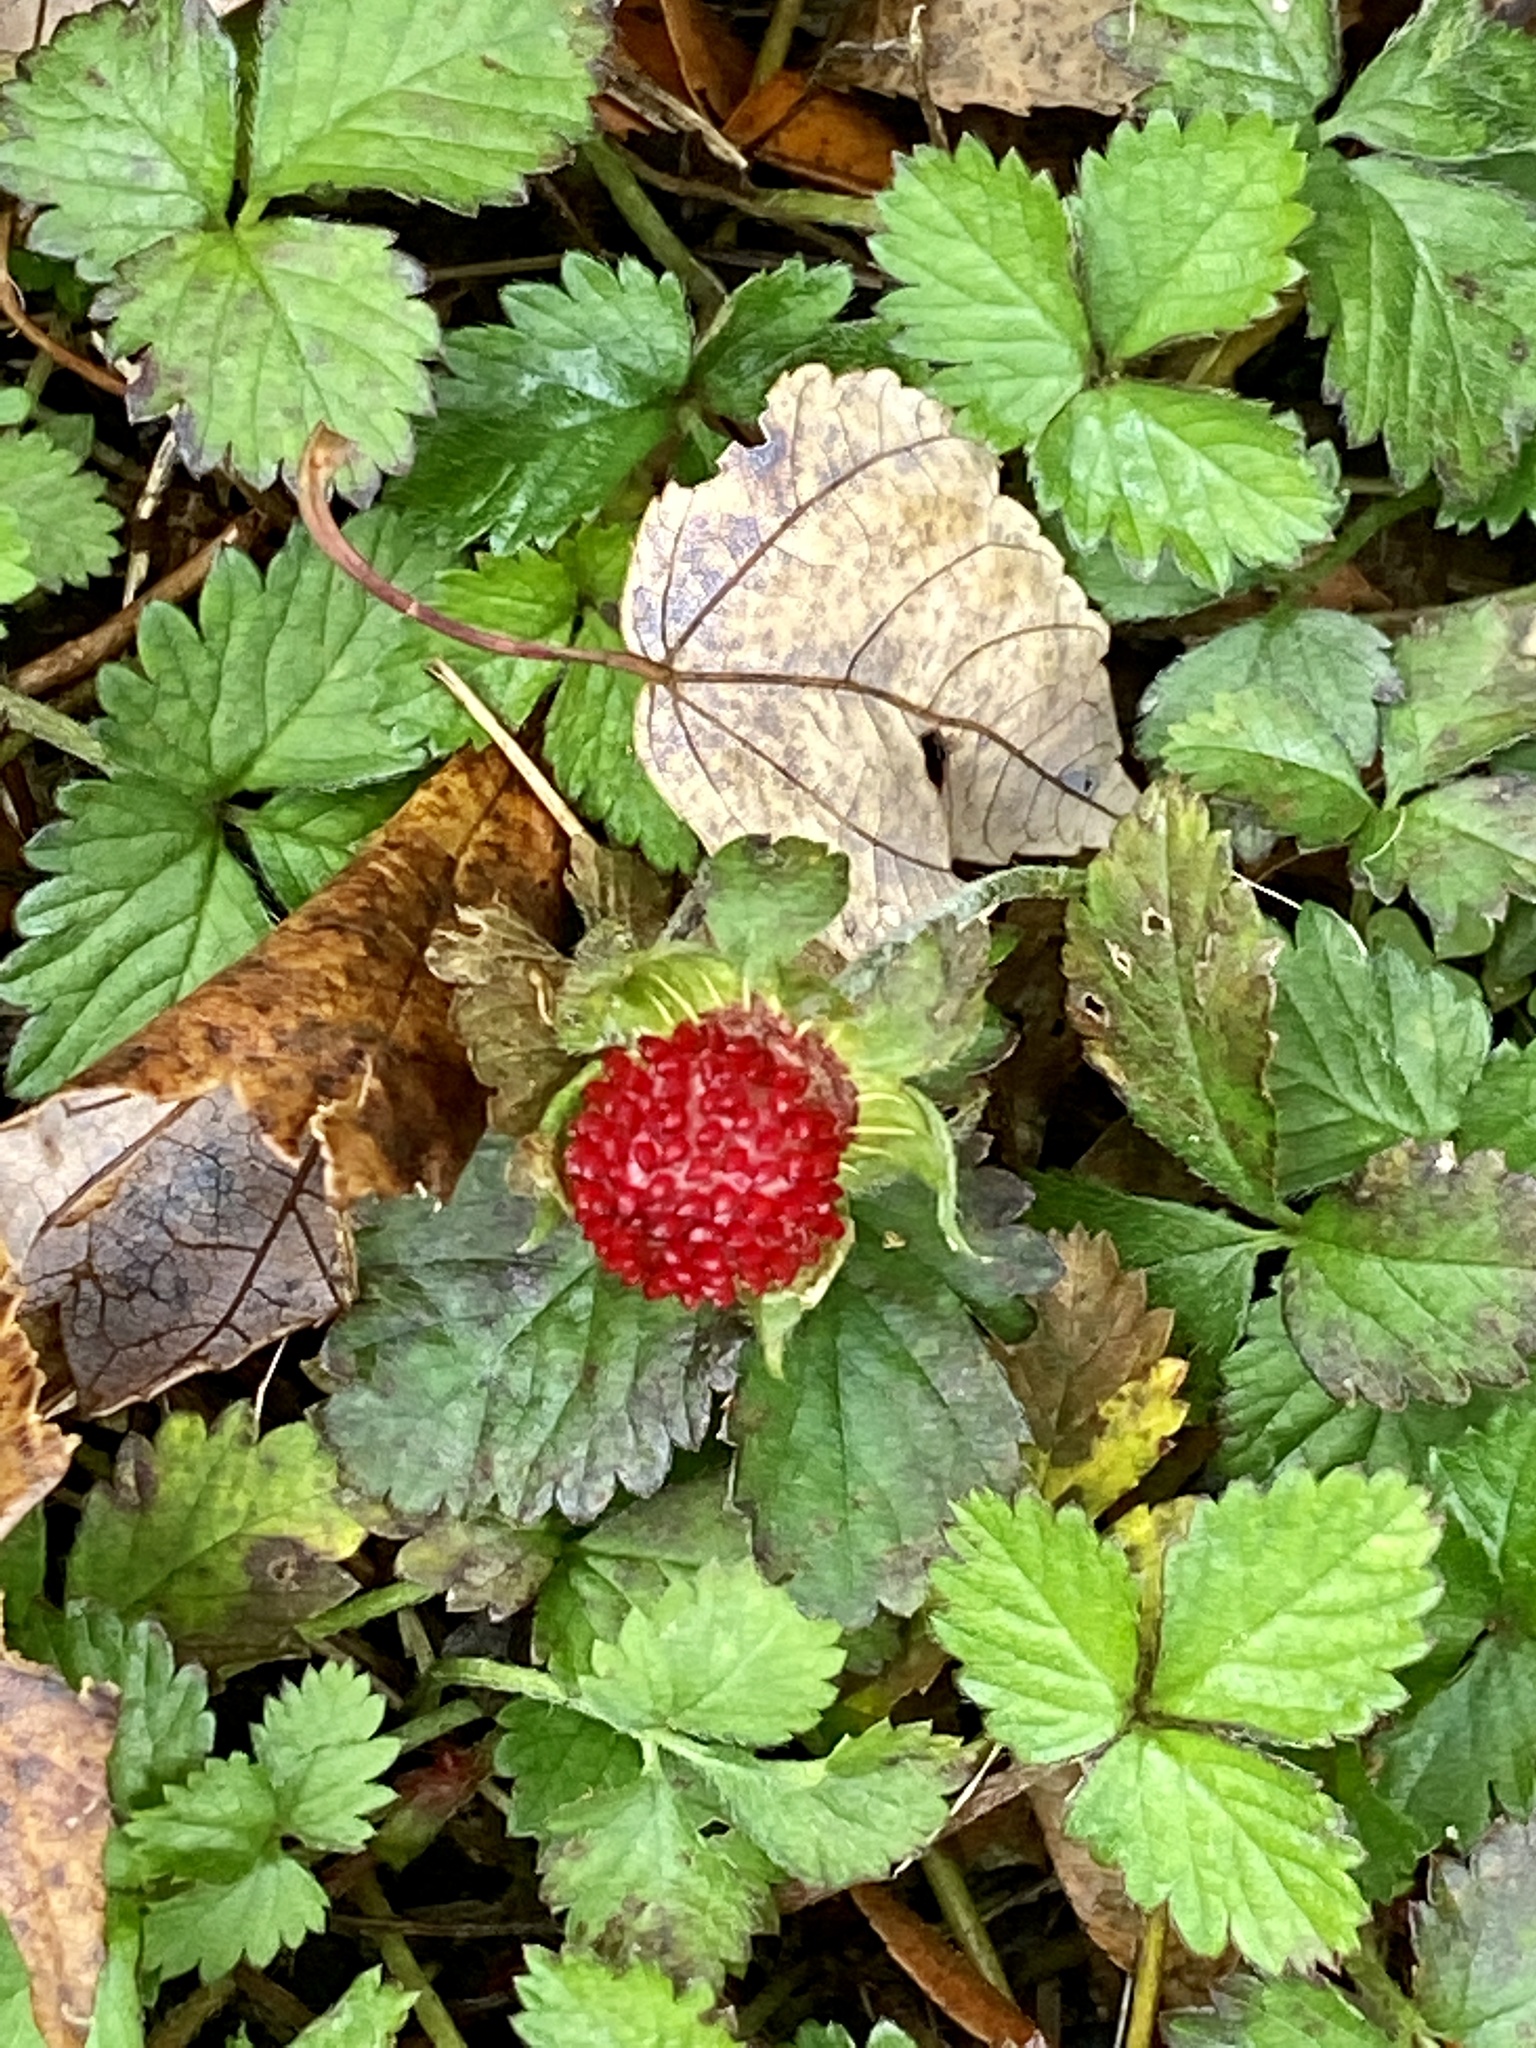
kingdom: Plantae
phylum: Tracheophyta
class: Magnoliopsida
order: Rosales
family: Rosaceae
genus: Potentilla
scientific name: Potentilla indica
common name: Yellow-flowered strawberry
